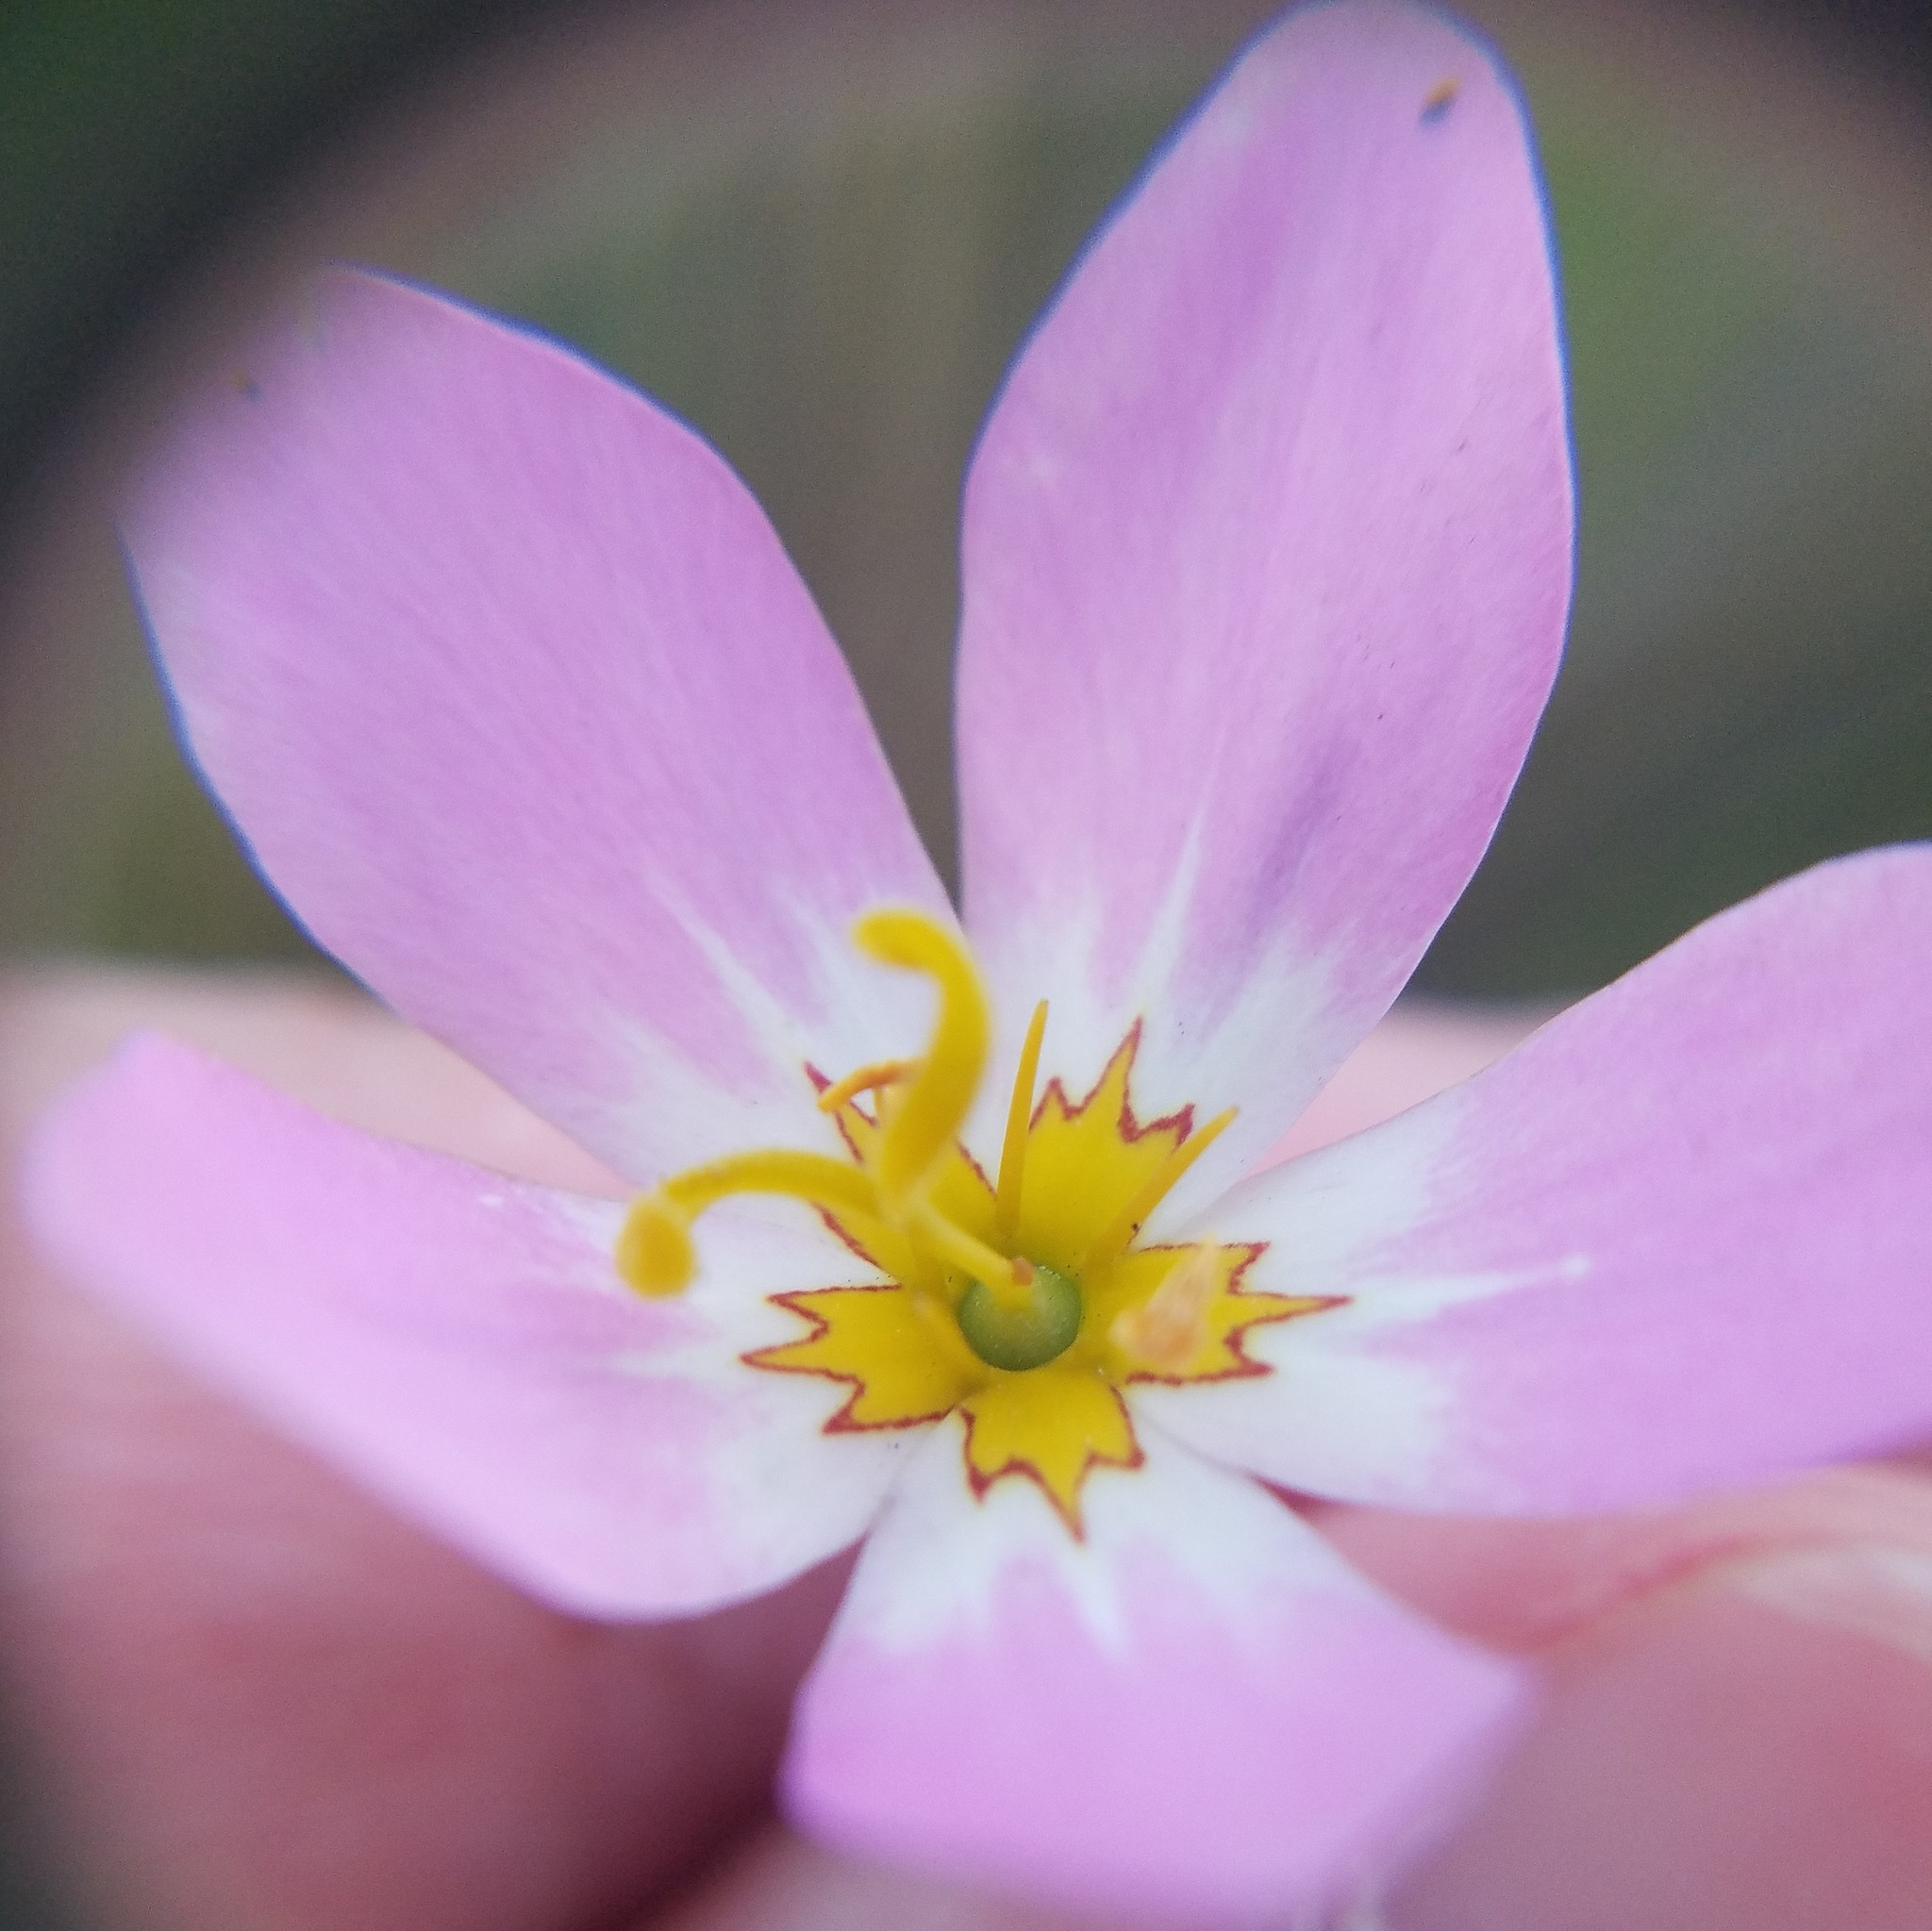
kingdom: Plantae
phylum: Tracheophyta
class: Magnoliopsida
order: Gentianales
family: Gentianaceae
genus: Sabatia
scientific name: Sabatia stellaris
